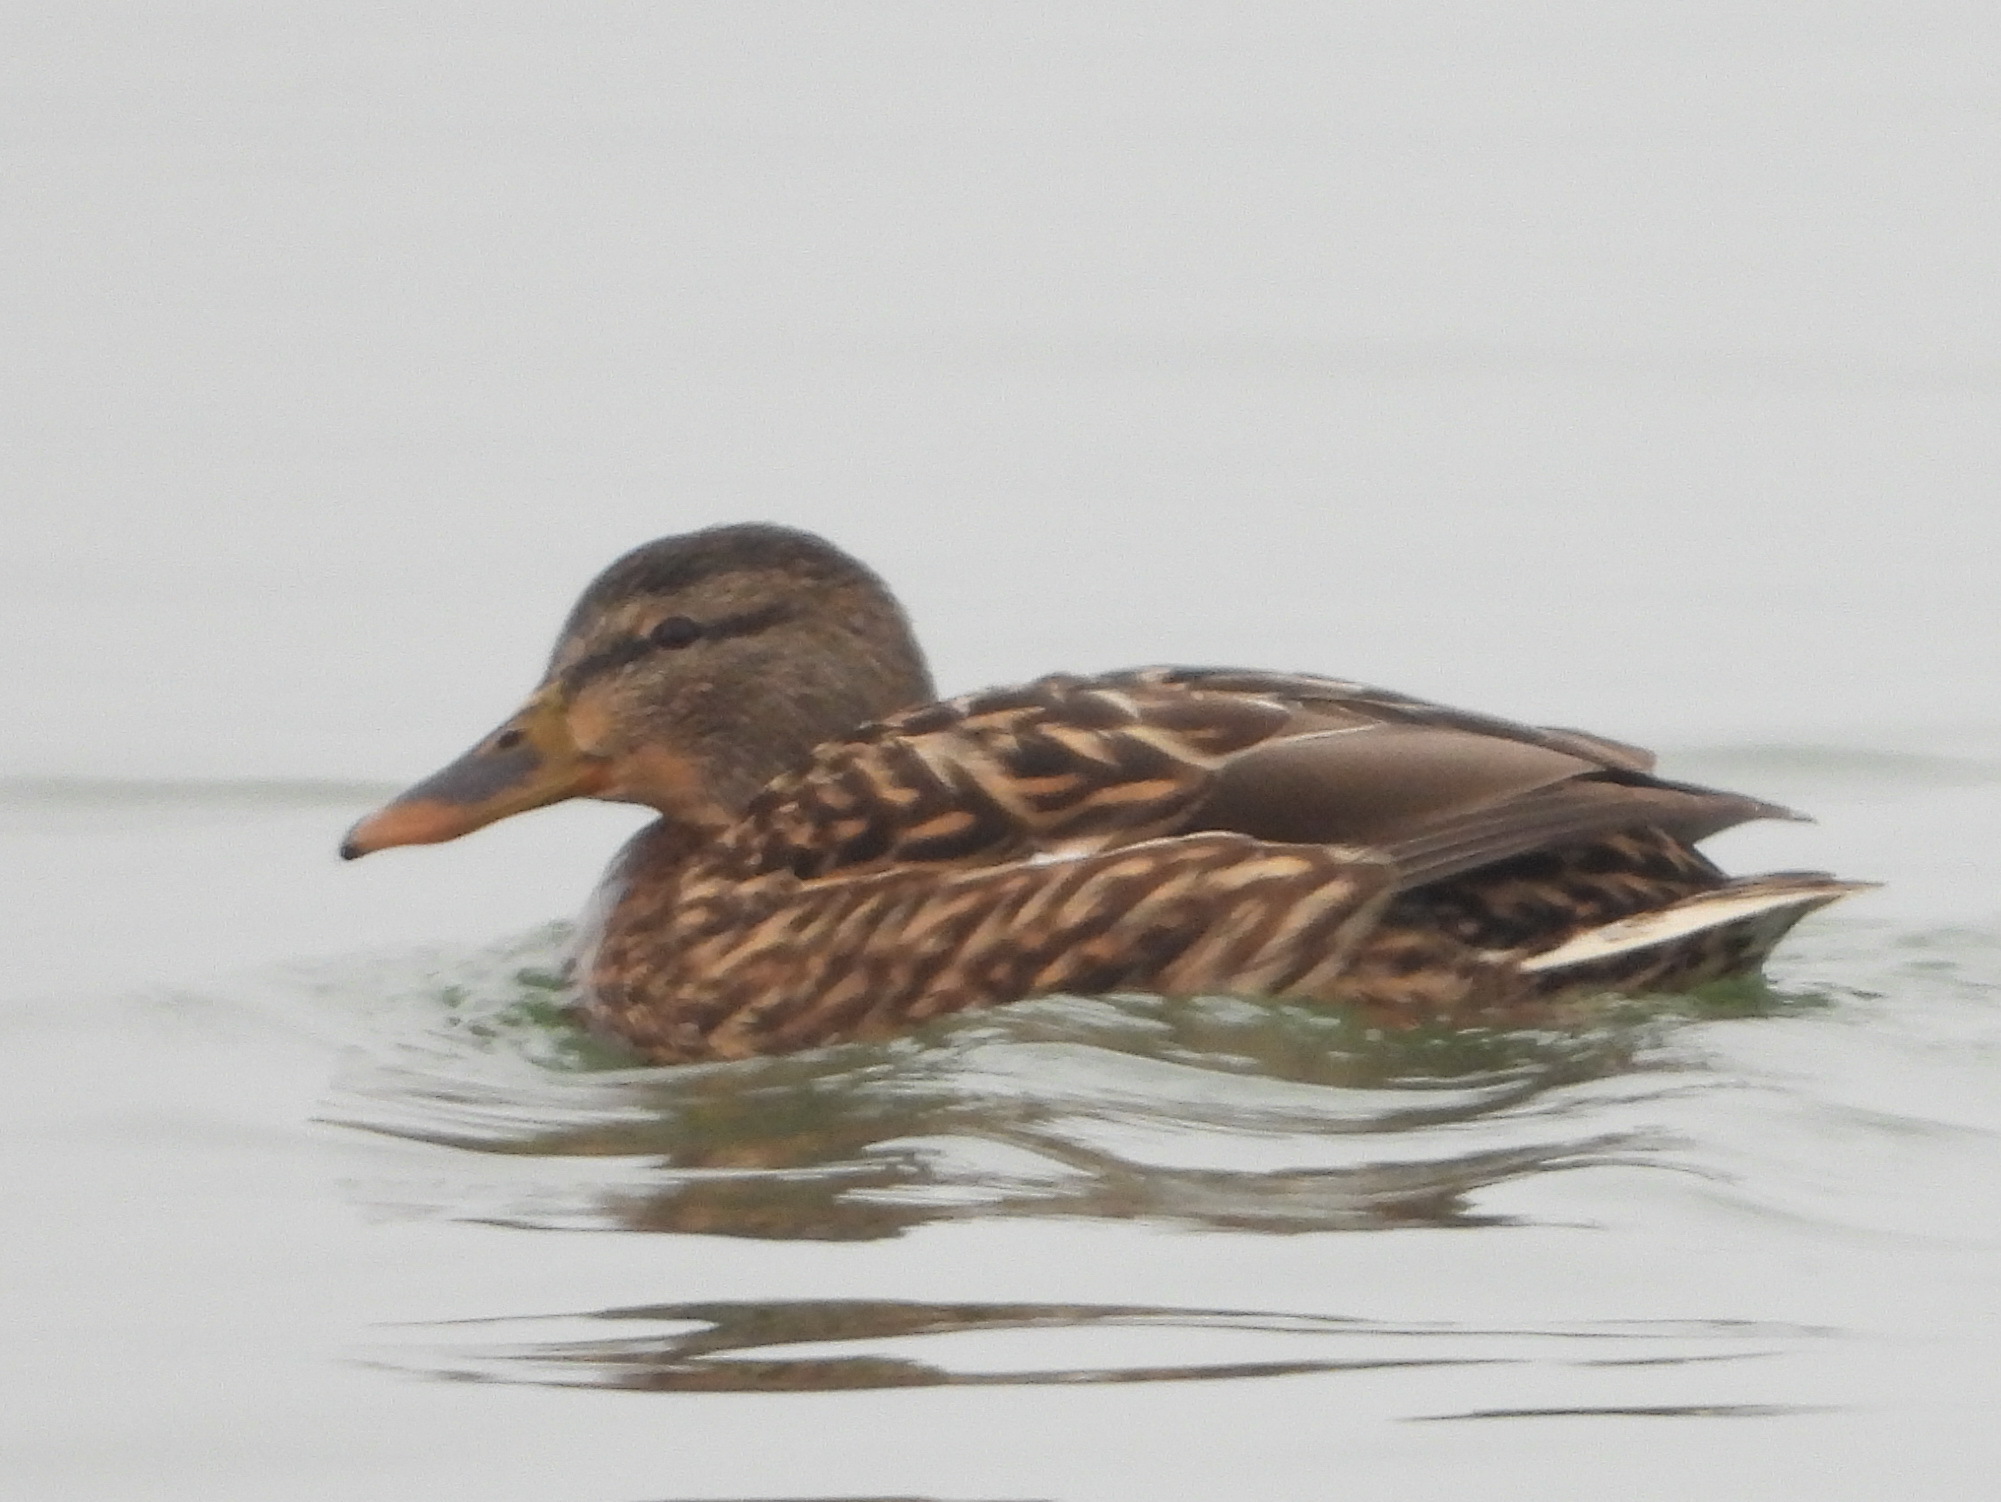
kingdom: Animalia
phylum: Chordata
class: Aves
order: Anseriformes
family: Anatidae
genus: Anas
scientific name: Anas platyrhynchos
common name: Mallard
